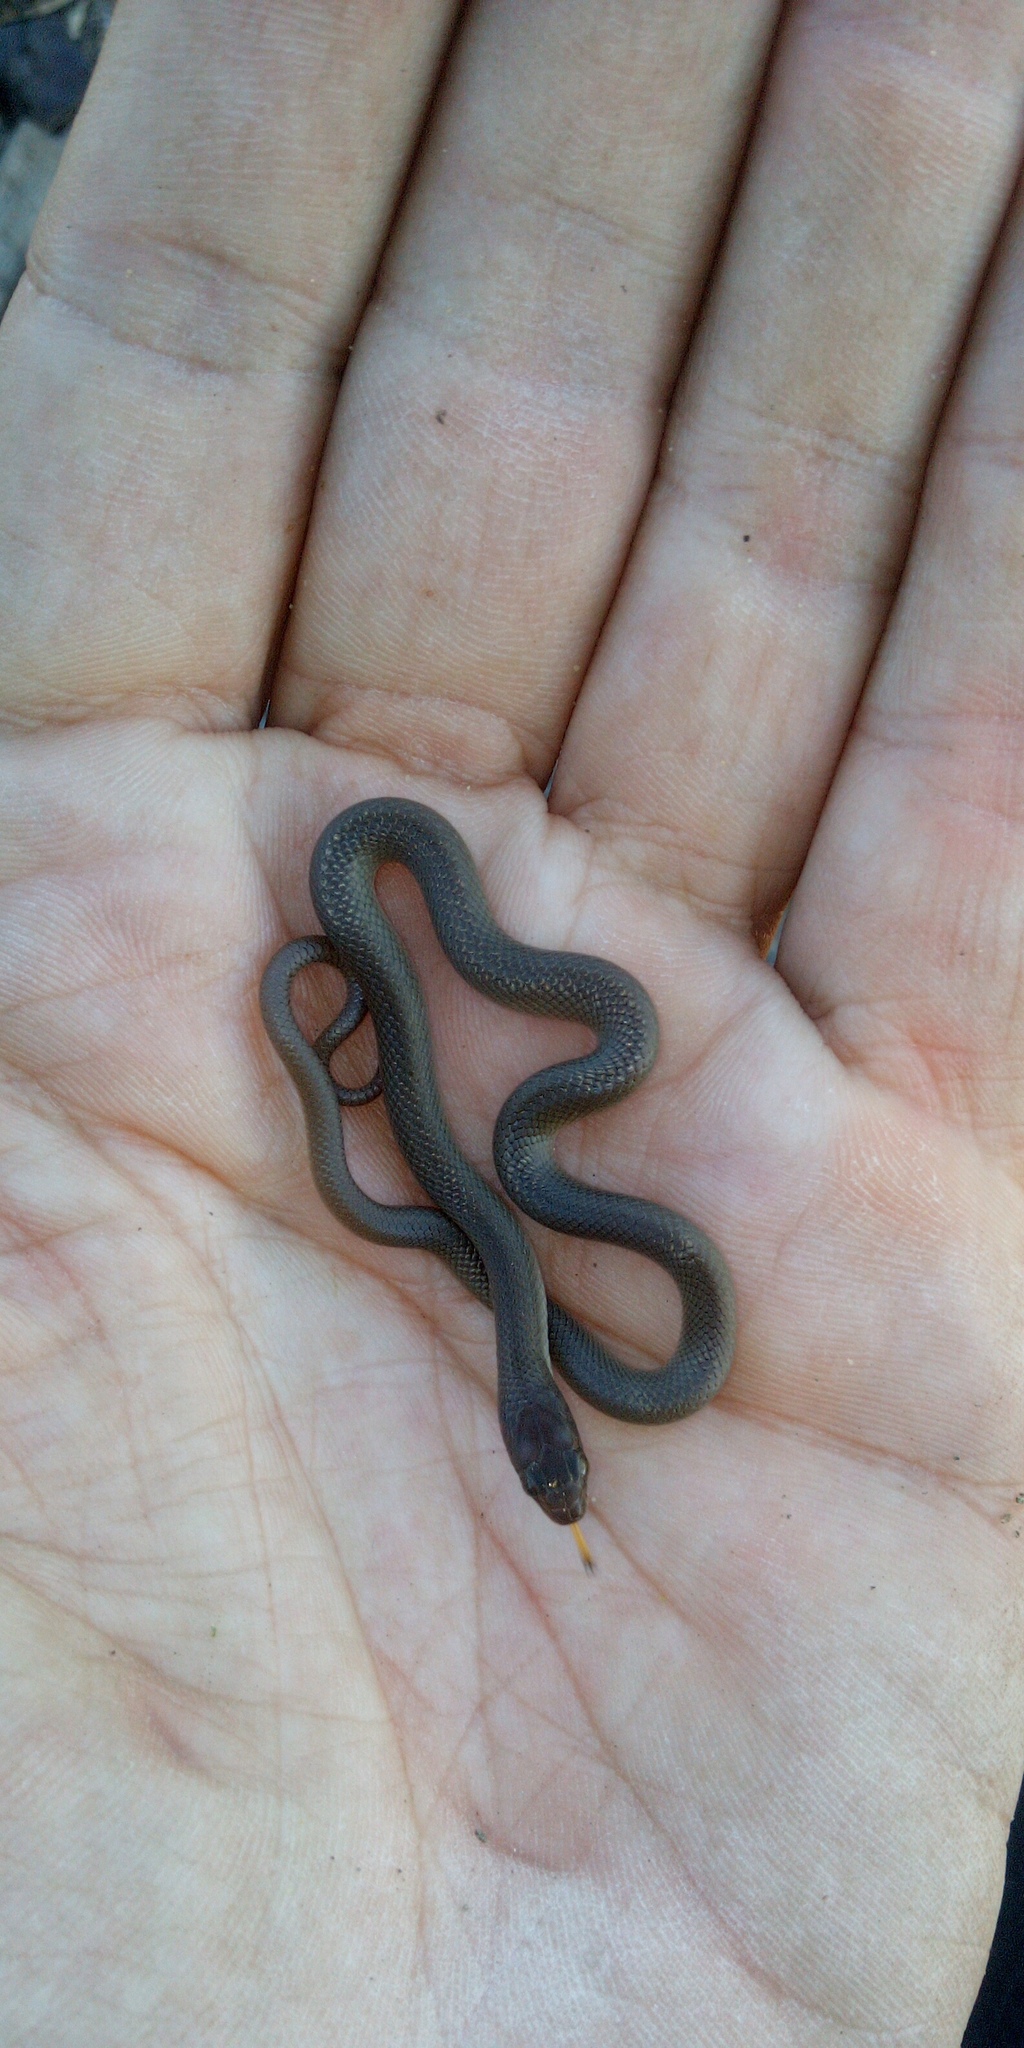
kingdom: Animalia
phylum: Chordata
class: Squamata
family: Lamprophiidae
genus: Lycodonomorphus
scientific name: Lycodonomorphus rufulus
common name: Brown water snake
